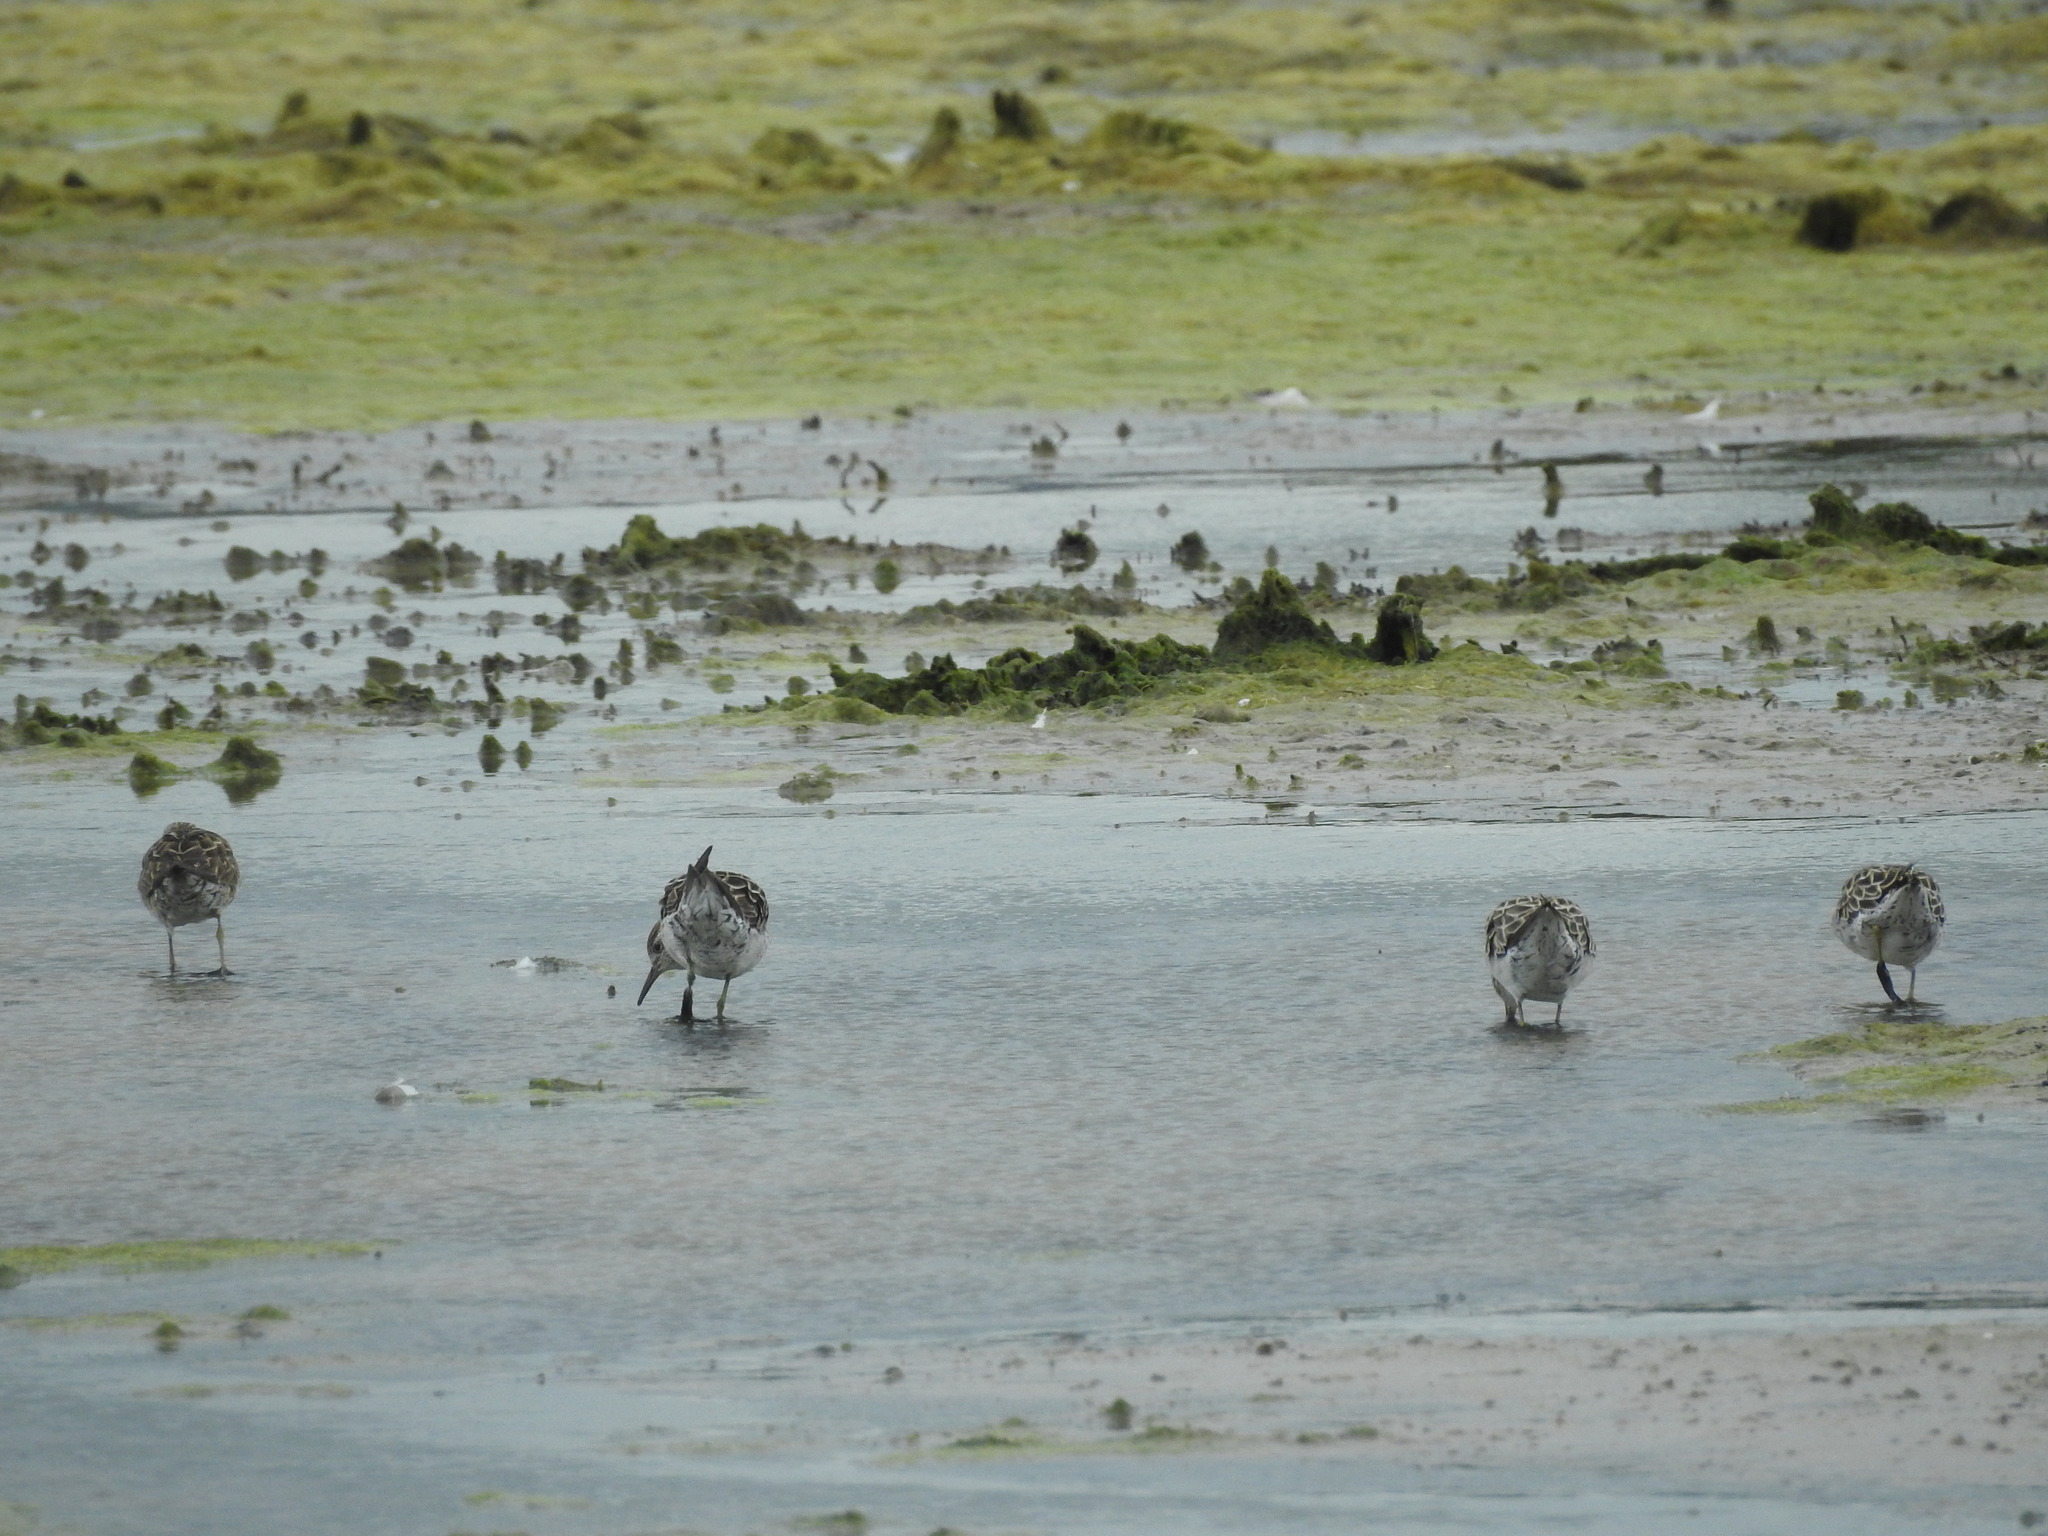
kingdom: Animalia
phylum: Chordata
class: Aves
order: Charadriiformes
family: Scolopacidae
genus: Calidris
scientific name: Calidris acuminata
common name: Sharp-tailed sandpiper
